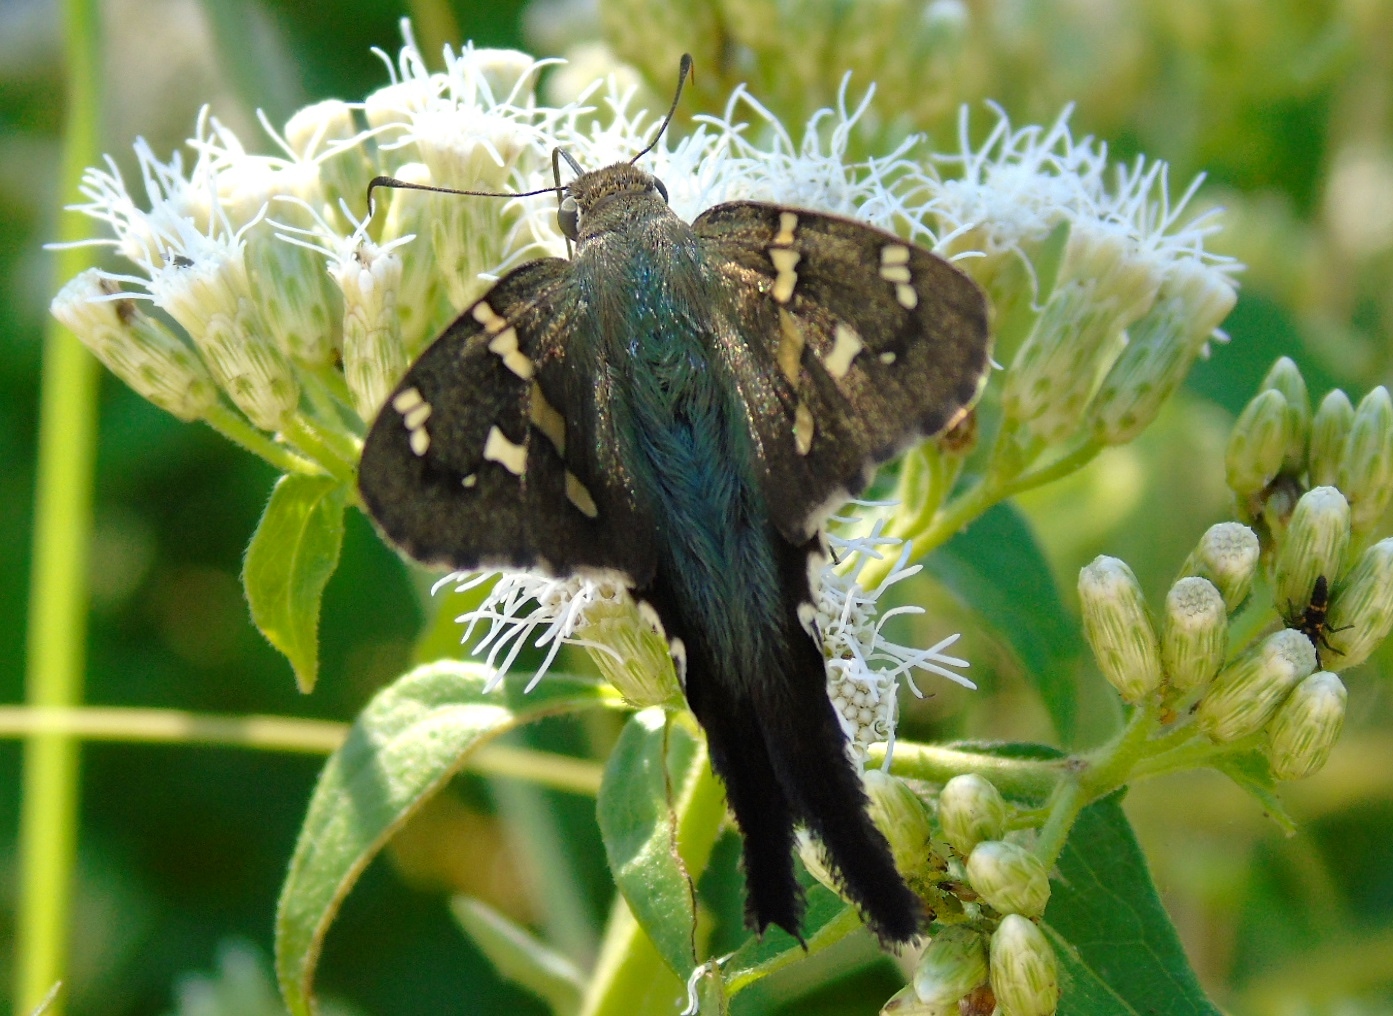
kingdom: Animalia
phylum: Arthropoda
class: Insecta
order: Lepidoptera
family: Hesperiidae
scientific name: Hesperiidae
